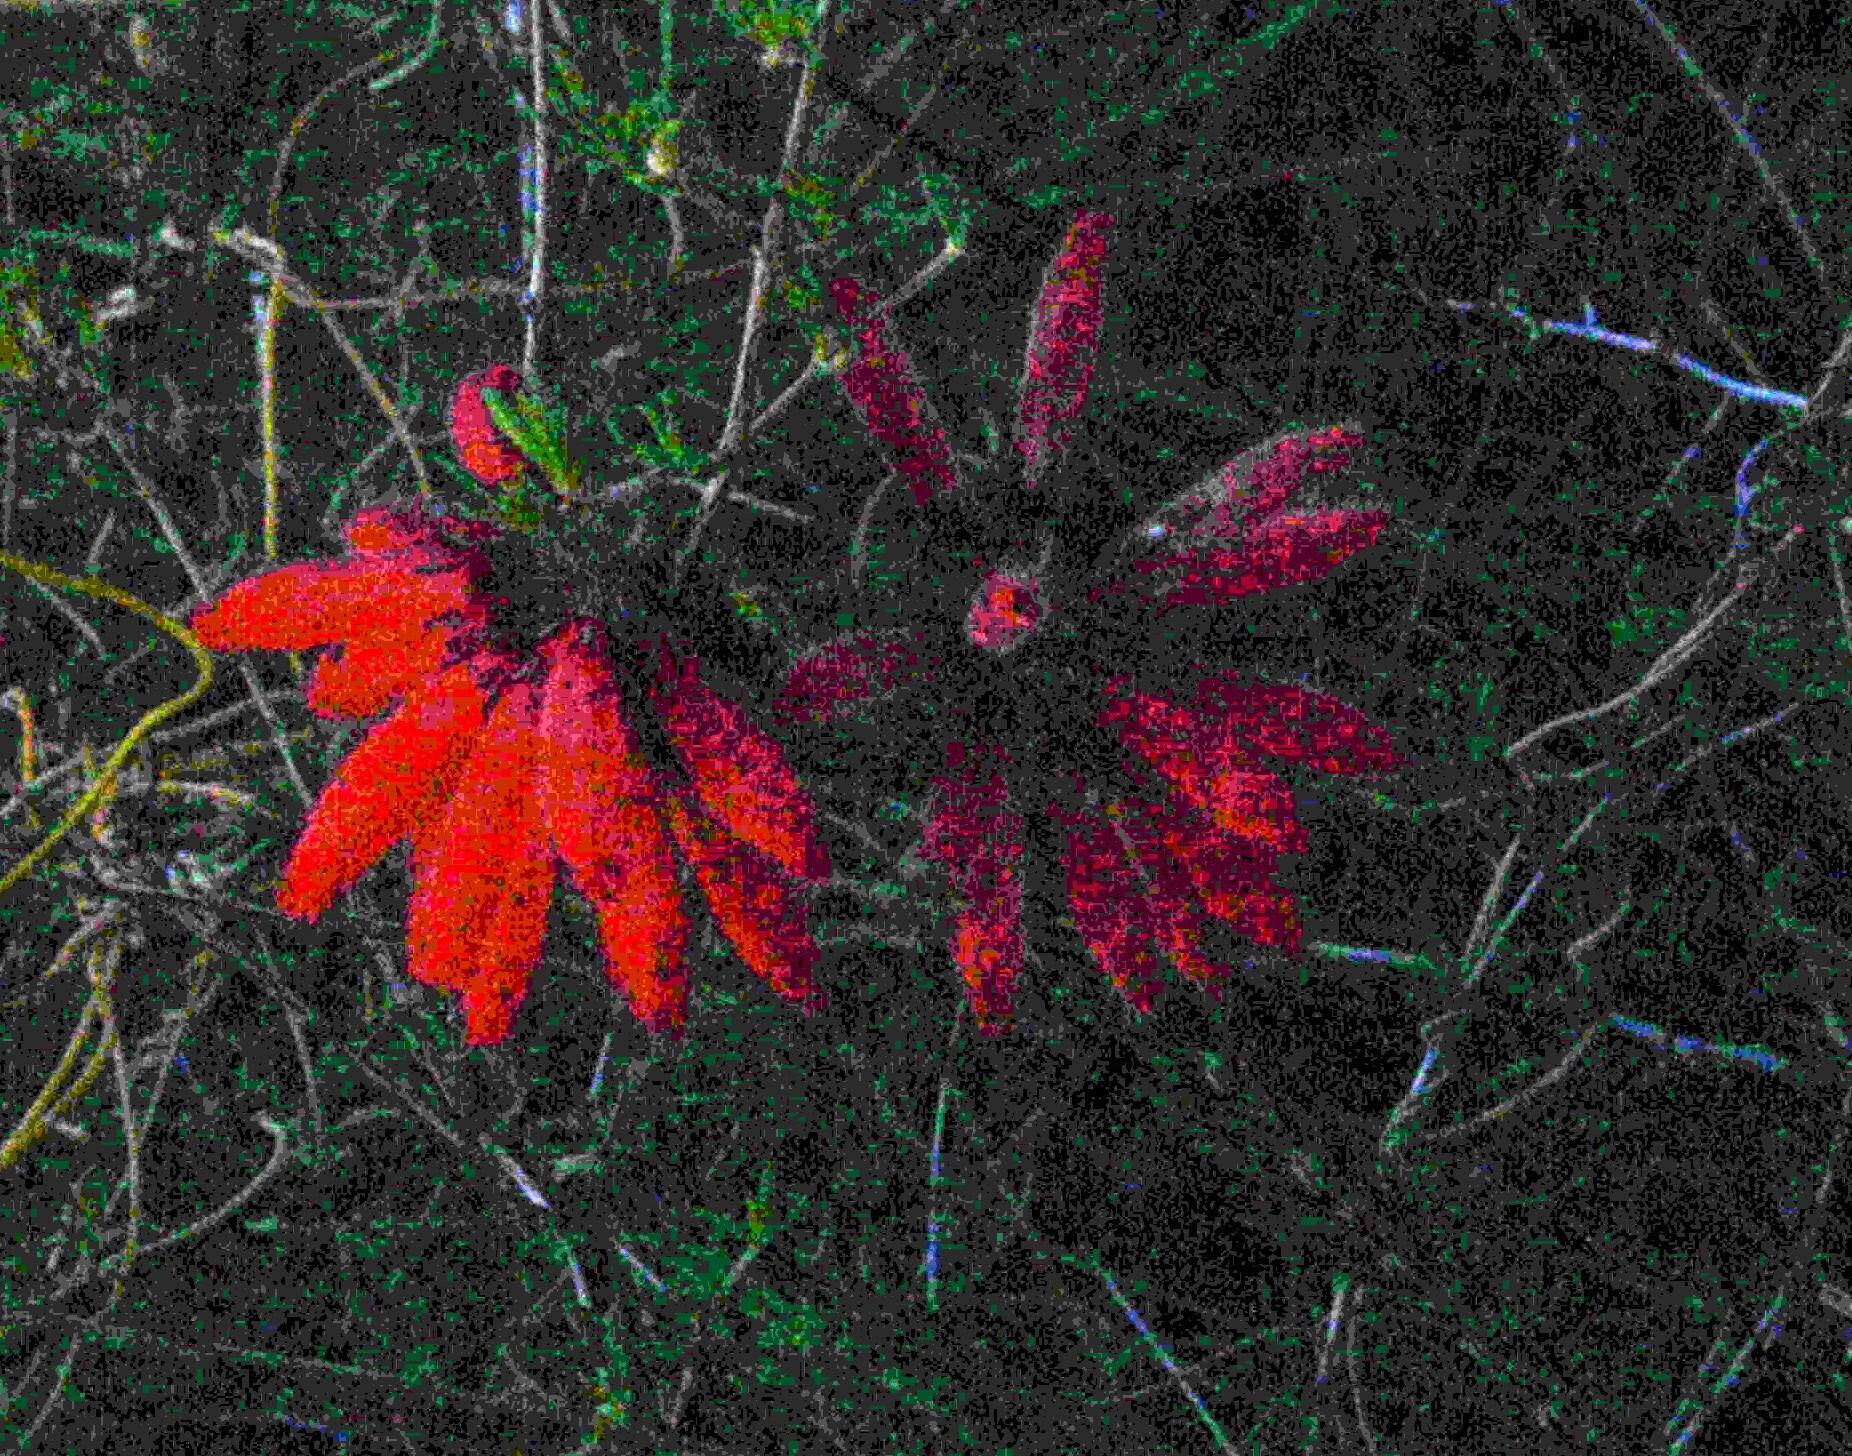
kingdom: Plantae
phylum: Tracheophyta
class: Magnoliopsida
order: Ericales
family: Ericaceae
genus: Erica
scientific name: Erica cerinthoides
